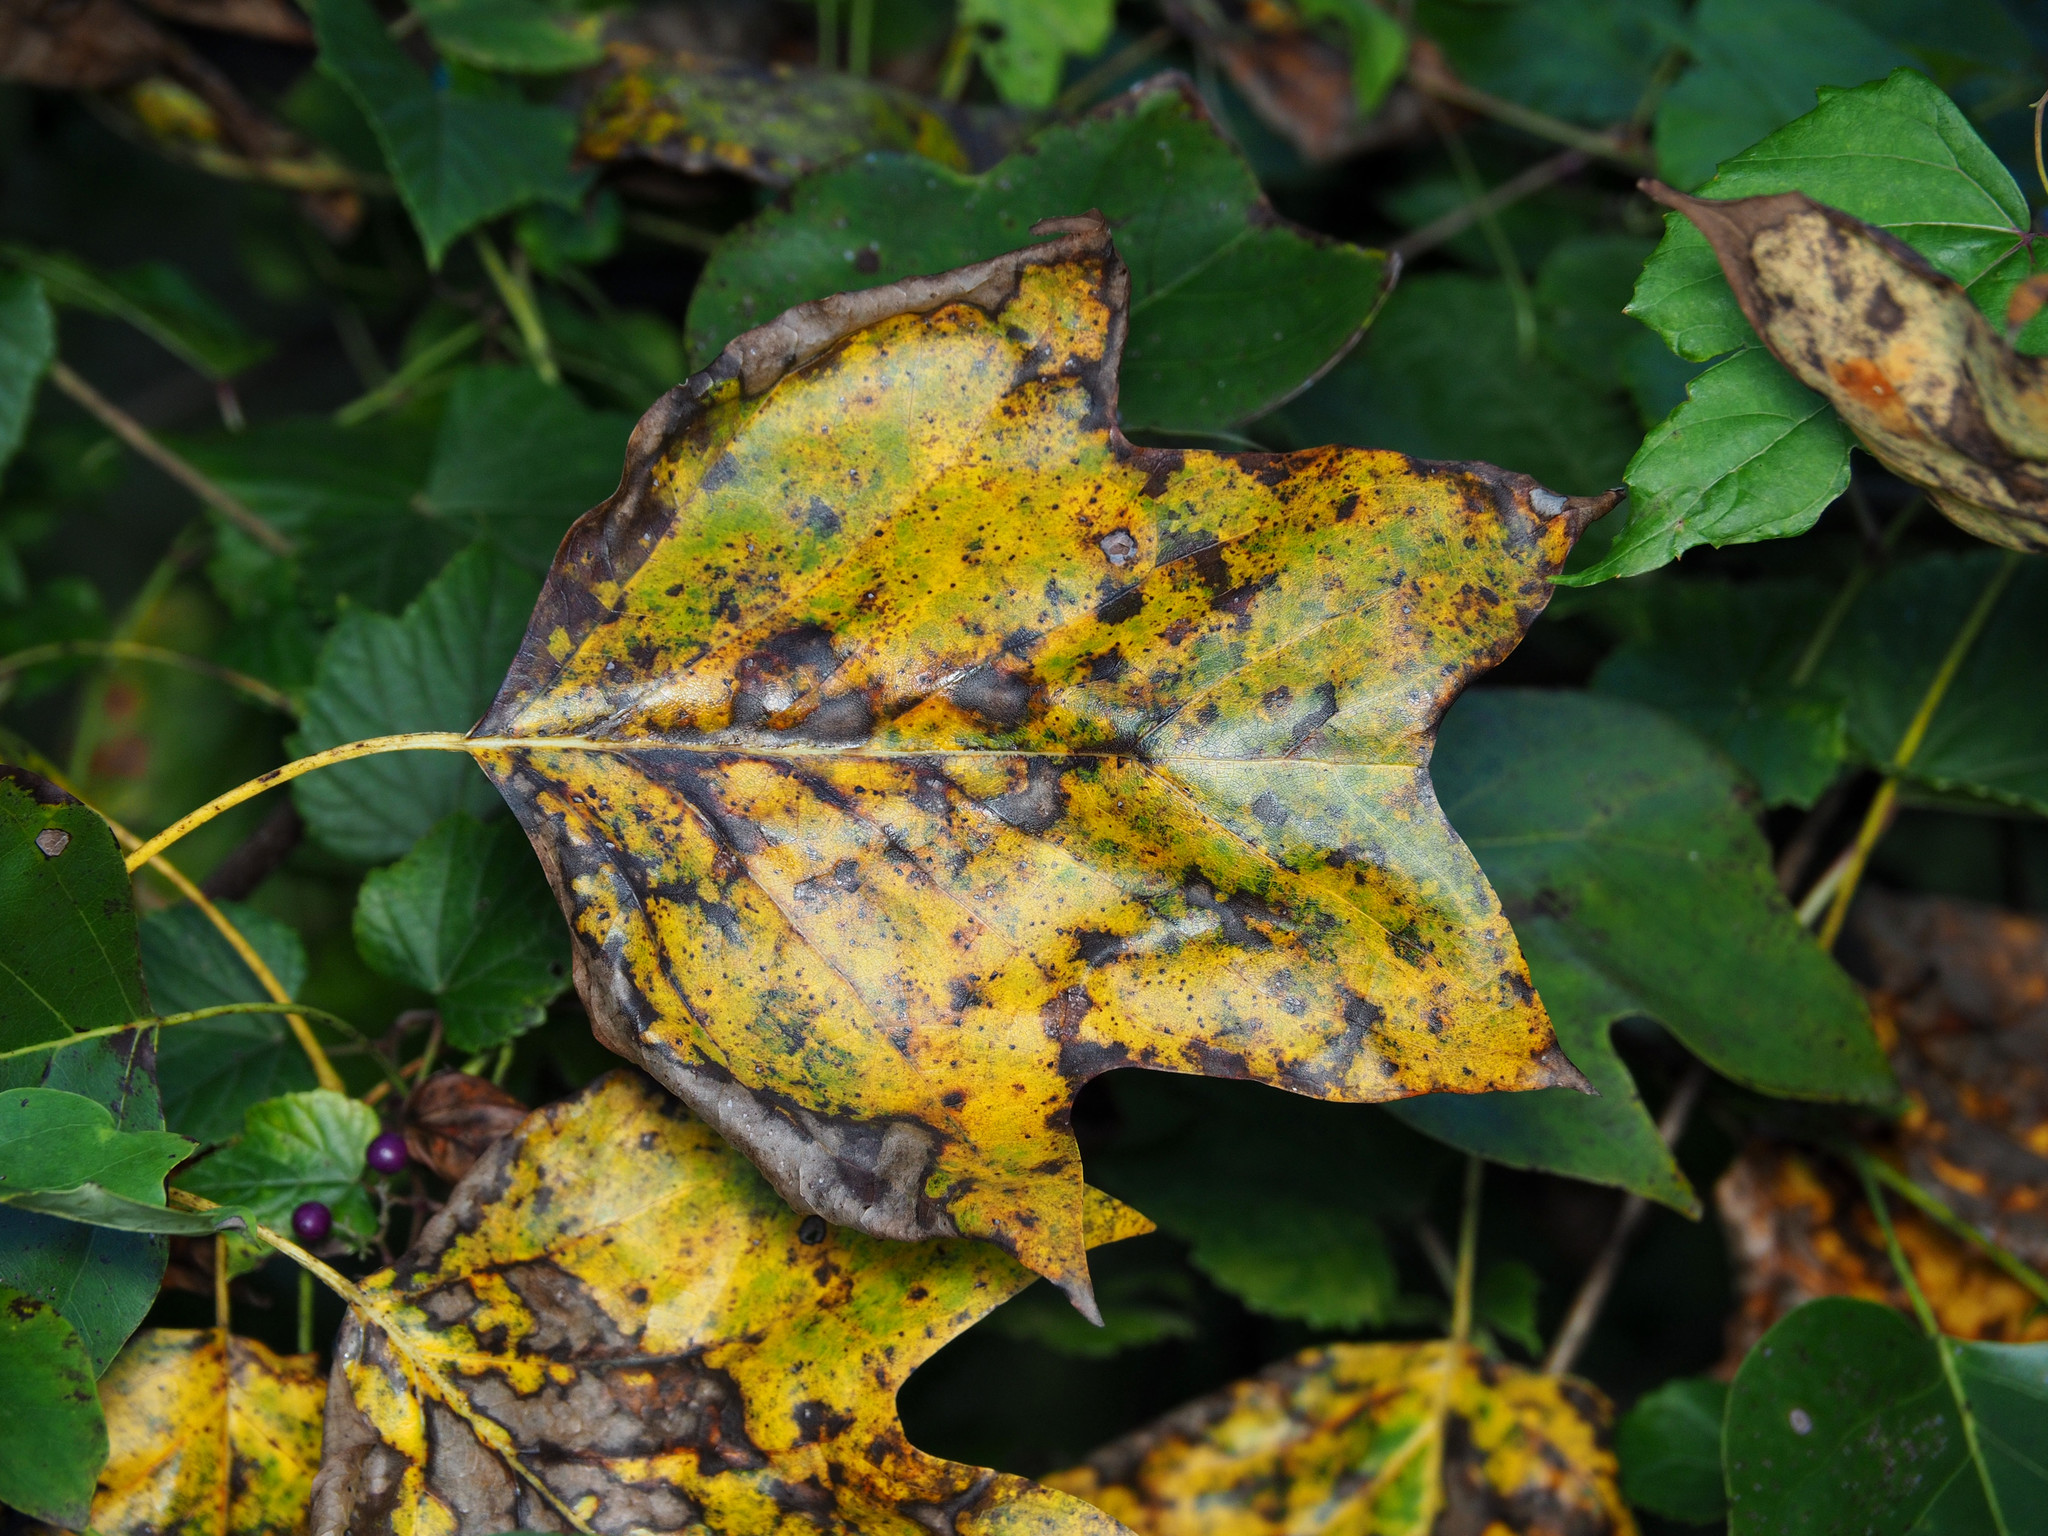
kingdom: Plantae
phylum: Tracheophyta
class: Magnoliopsida
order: Magnoliales
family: Magnoliaceae
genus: Liriodendron
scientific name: Liriodendron tulipifera
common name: Tulip tree
